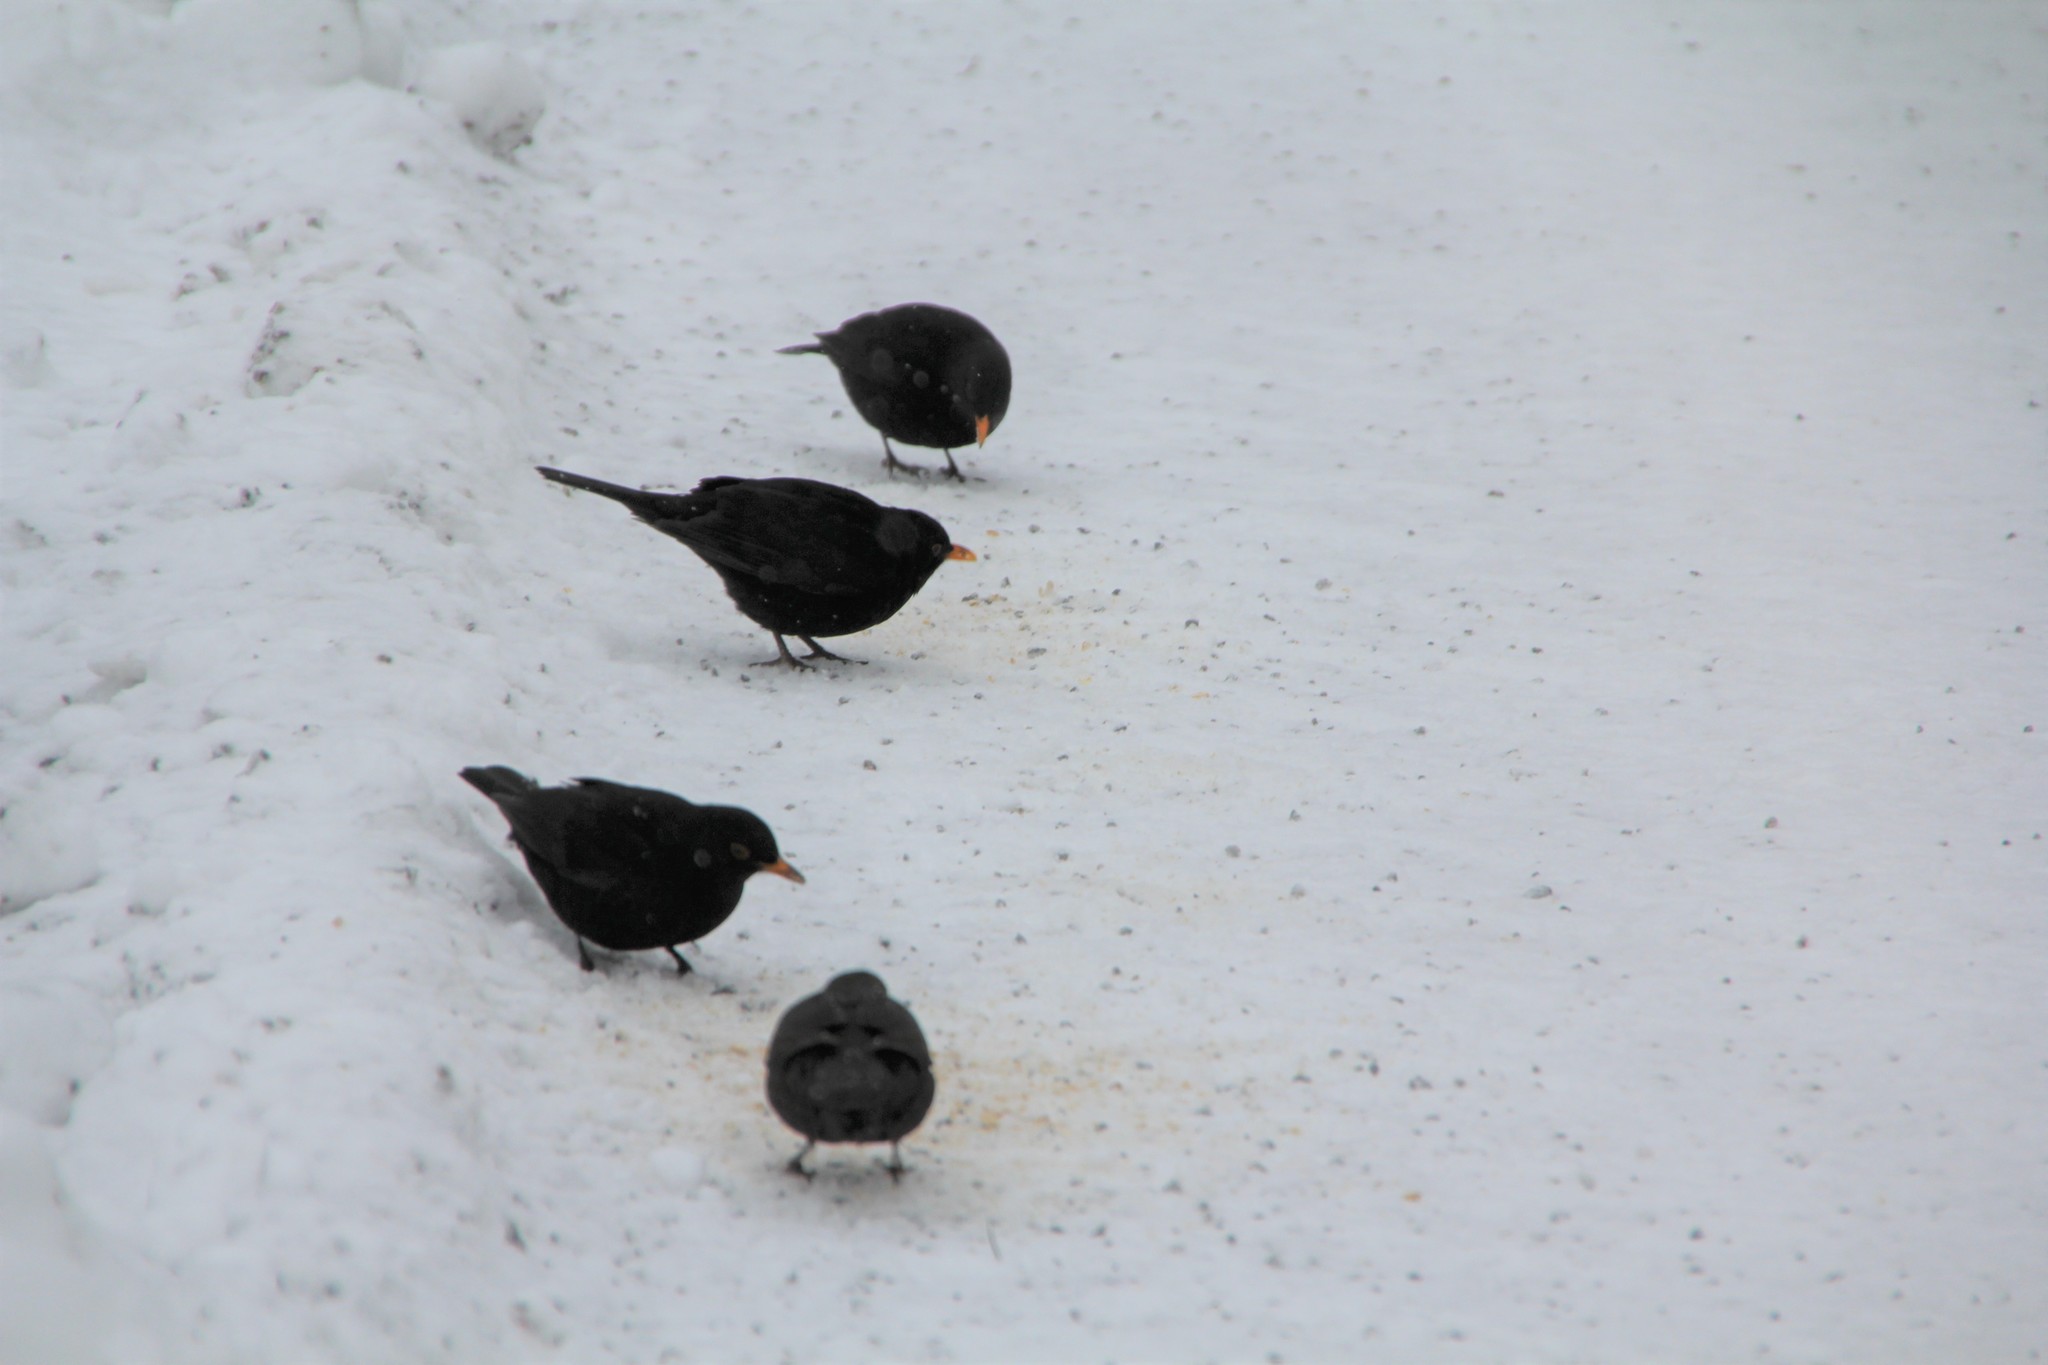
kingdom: Animalia
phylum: Chordata
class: Aves
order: Passeriformes
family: Turdidae
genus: Turdus
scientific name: Turdus merula
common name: Common blackbird
